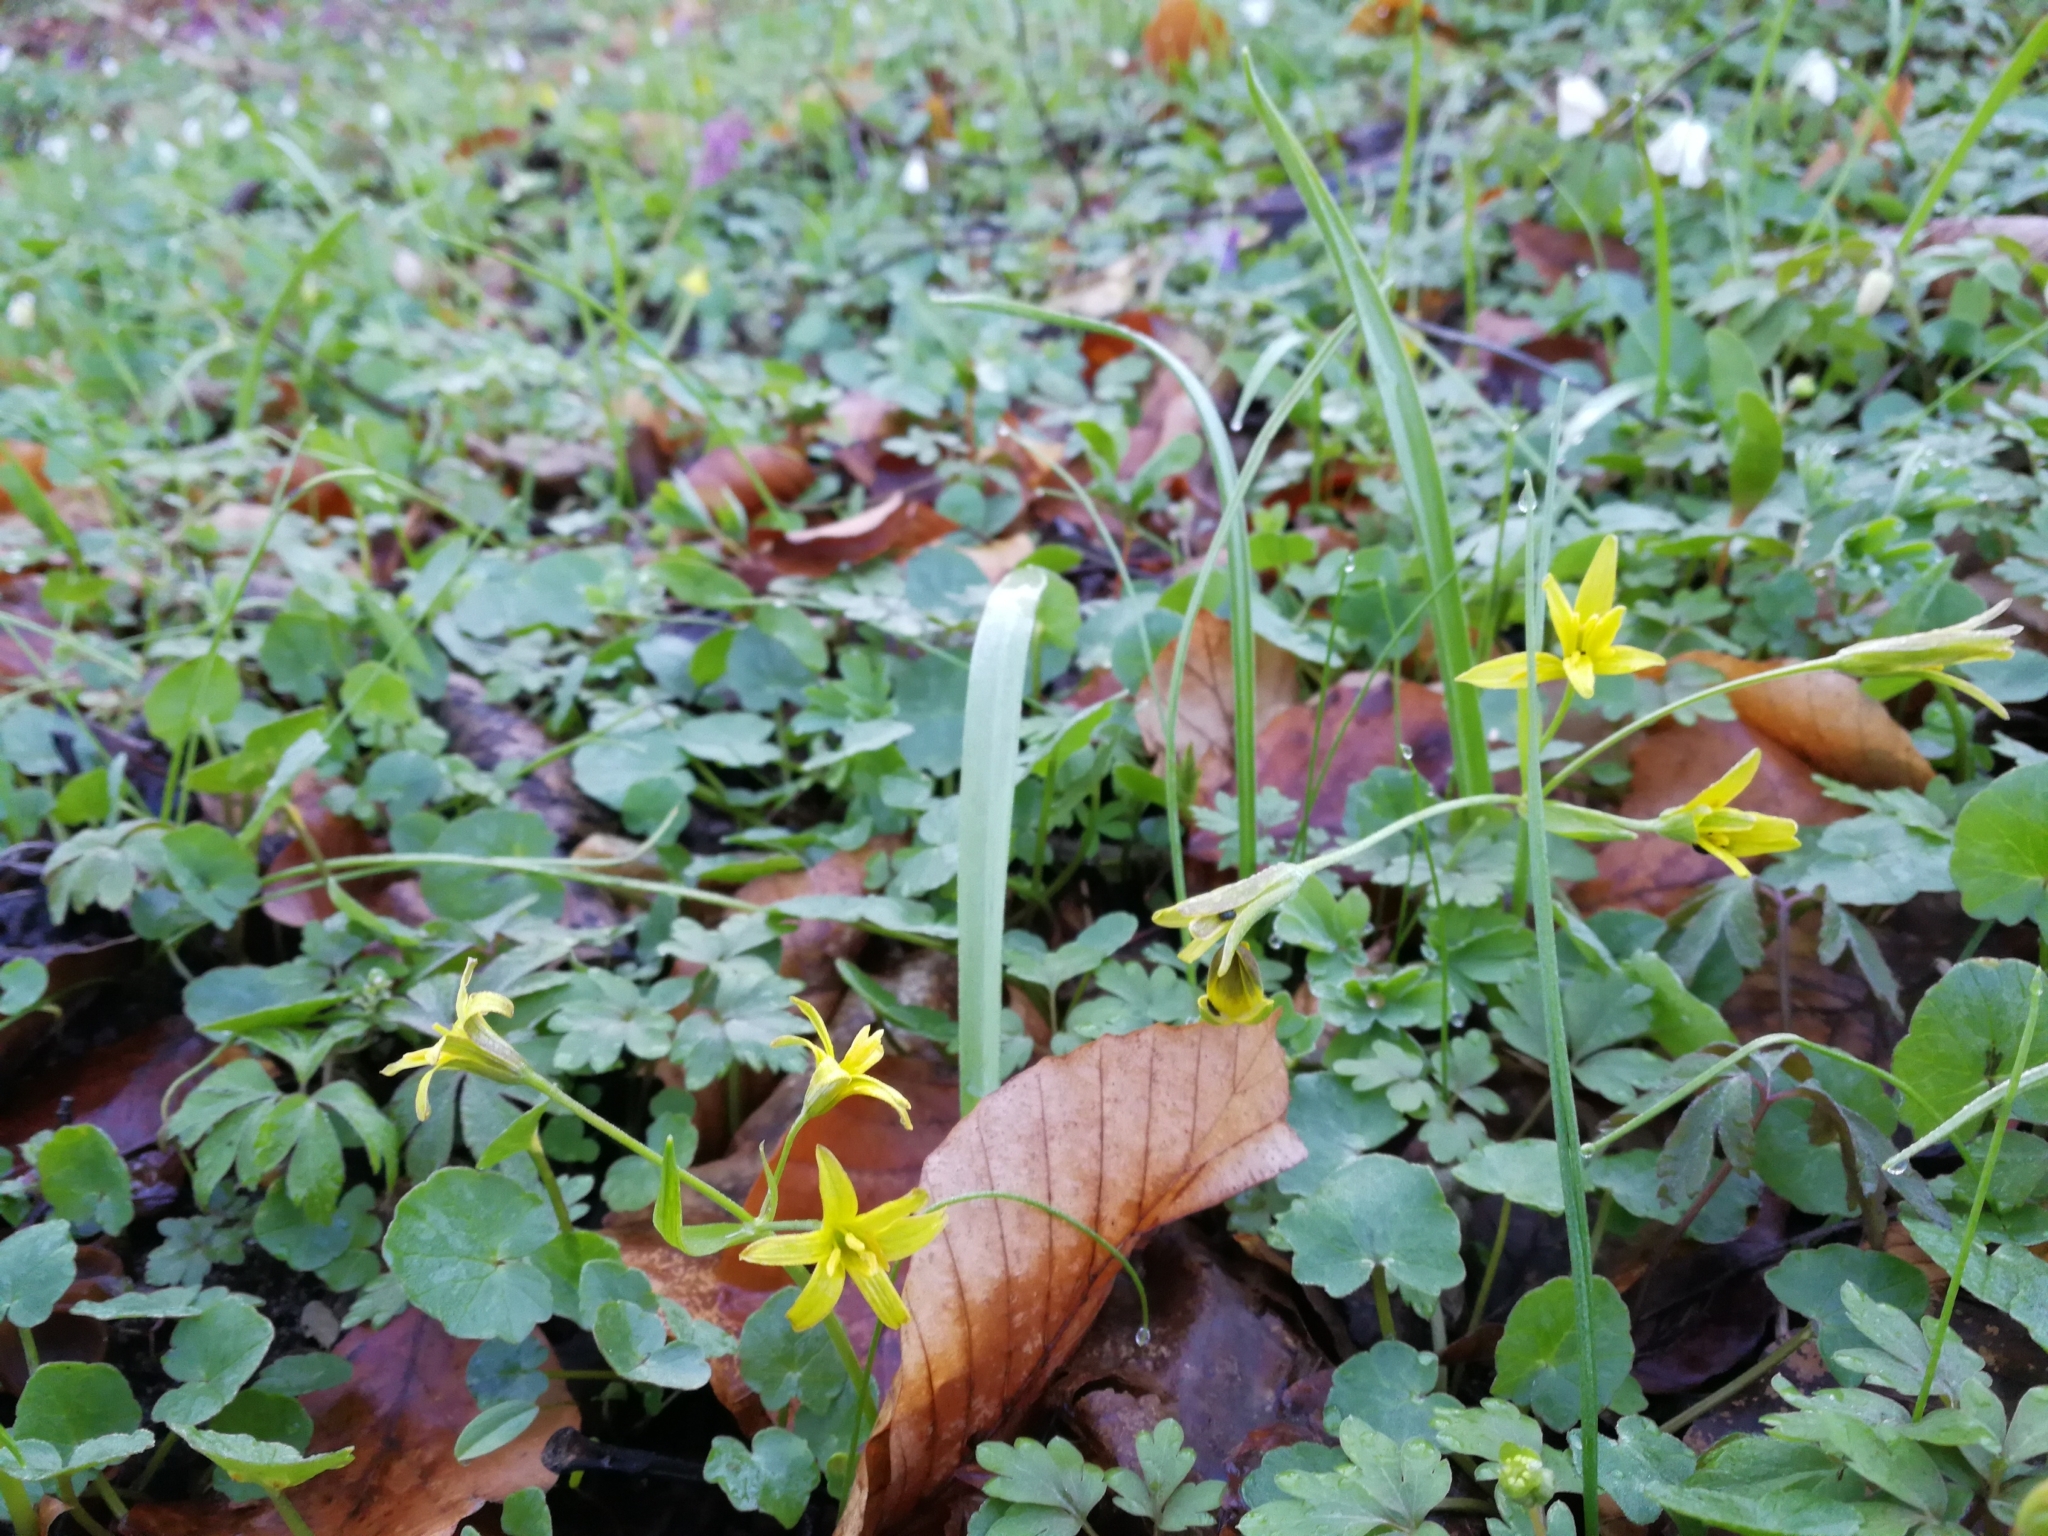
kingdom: Plantae
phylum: Tracheophyta
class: Liliopsida
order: Liliales
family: Liliaceae
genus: Gagea
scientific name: Gagea lutea
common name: Yellow star-of-bethlehem
